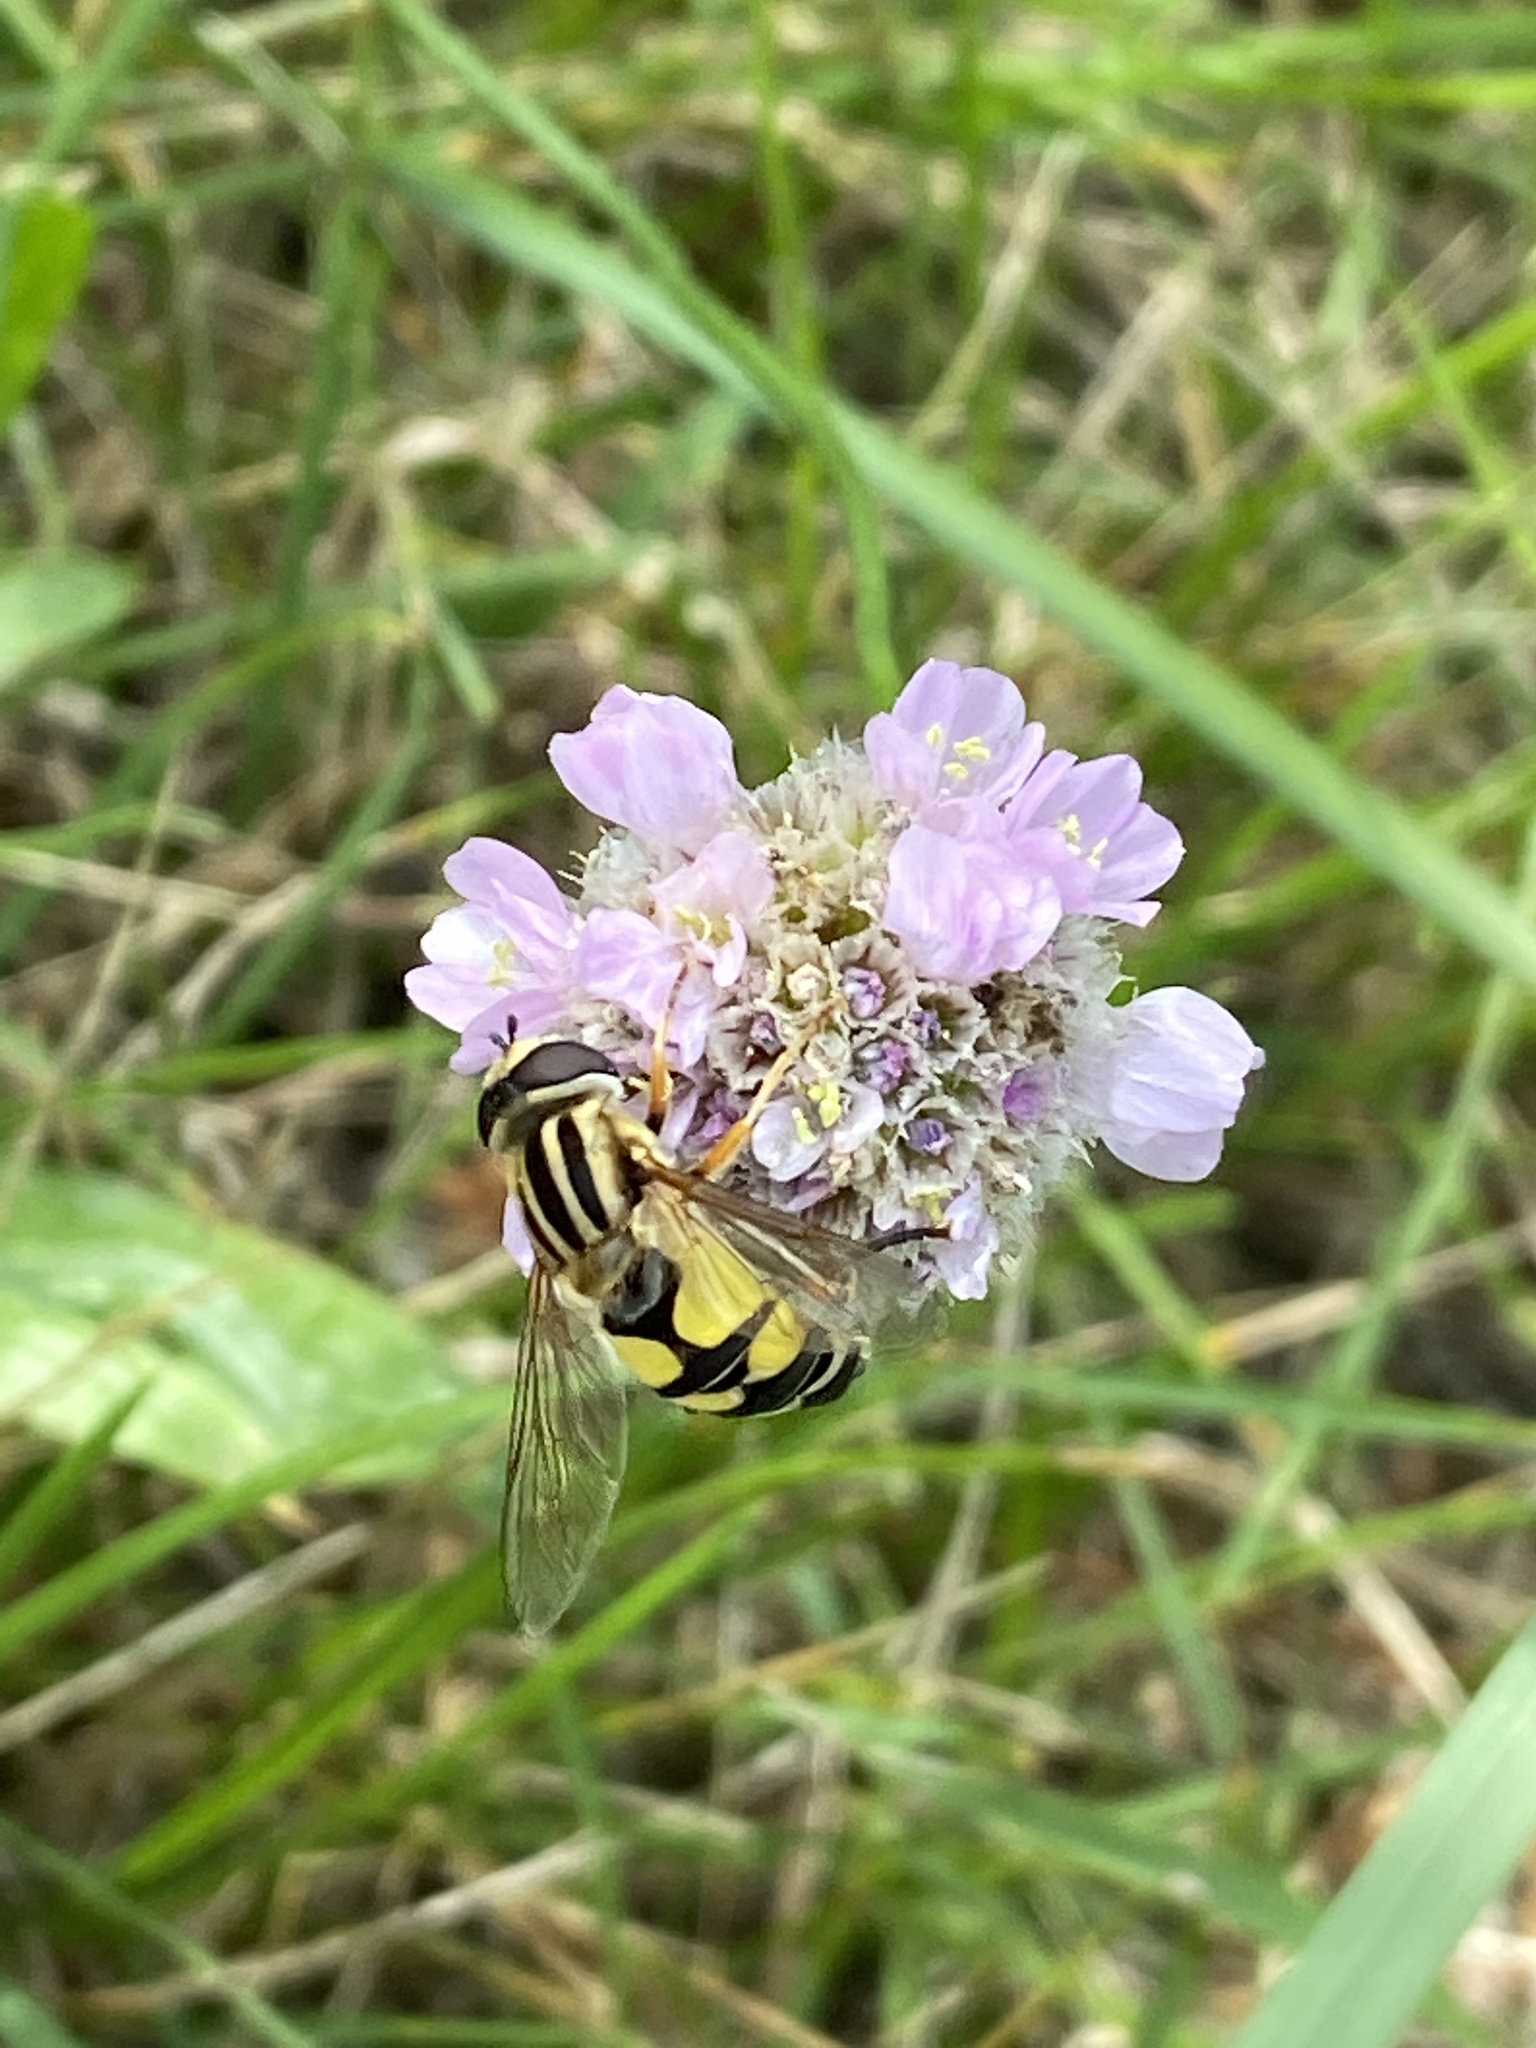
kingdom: Animalia
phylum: Arthropoda
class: Insecta
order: Diptera
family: Syrphidae
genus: Helophilus
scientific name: Helophilus trivittatus
